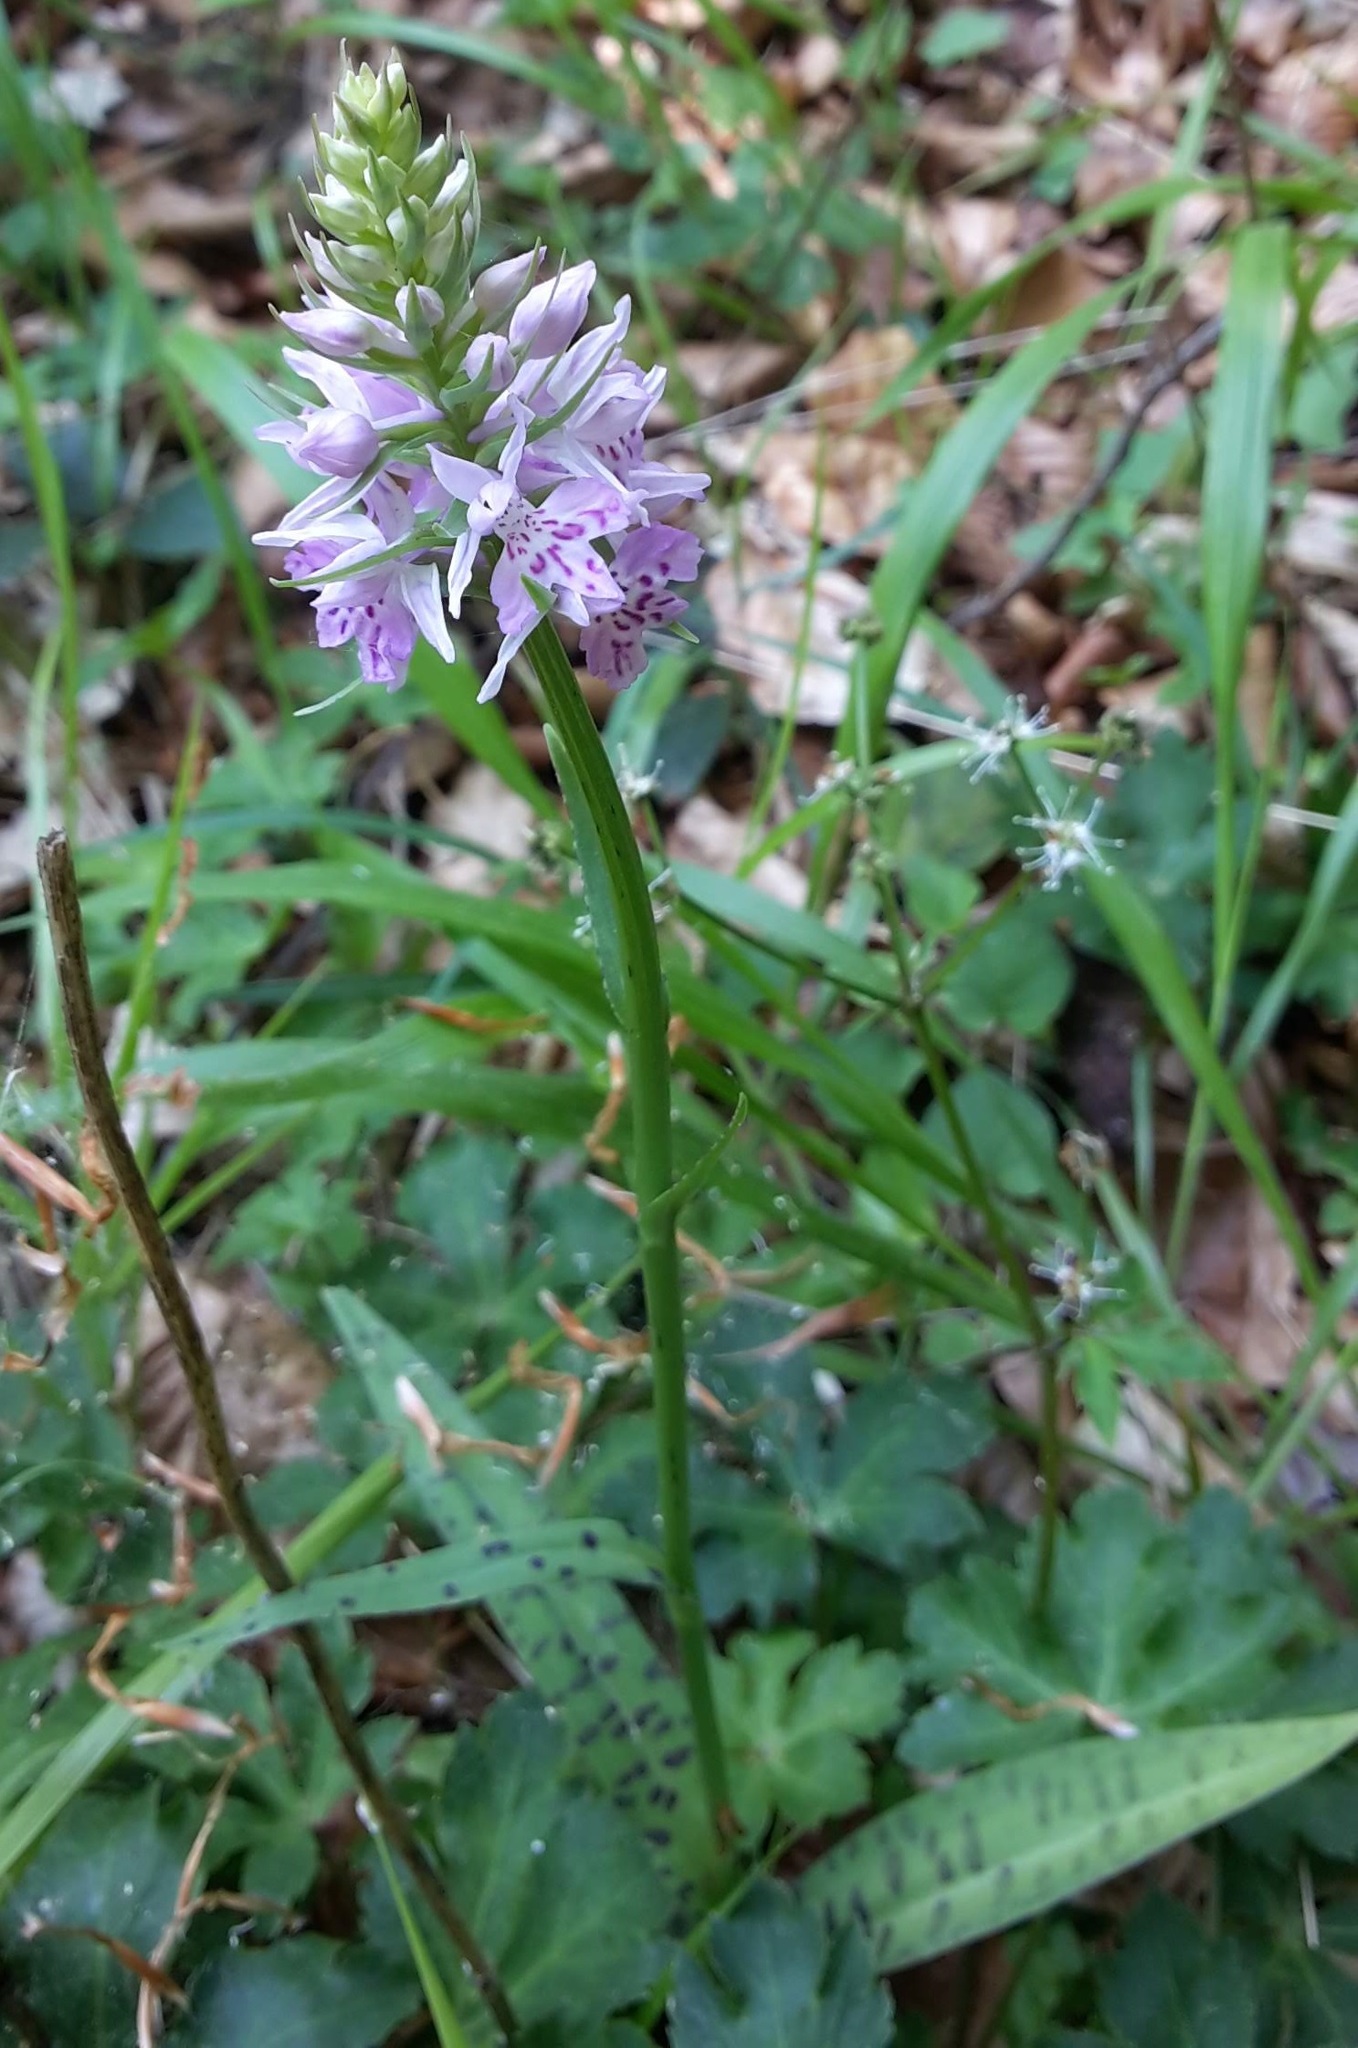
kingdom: Plantae
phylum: Tracheophyta
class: Liliopsida
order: Asparagales
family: Orchidaceae
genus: Dactylorhiza
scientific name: Dactylorhiza maculata
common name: Heath spotted-orchid
